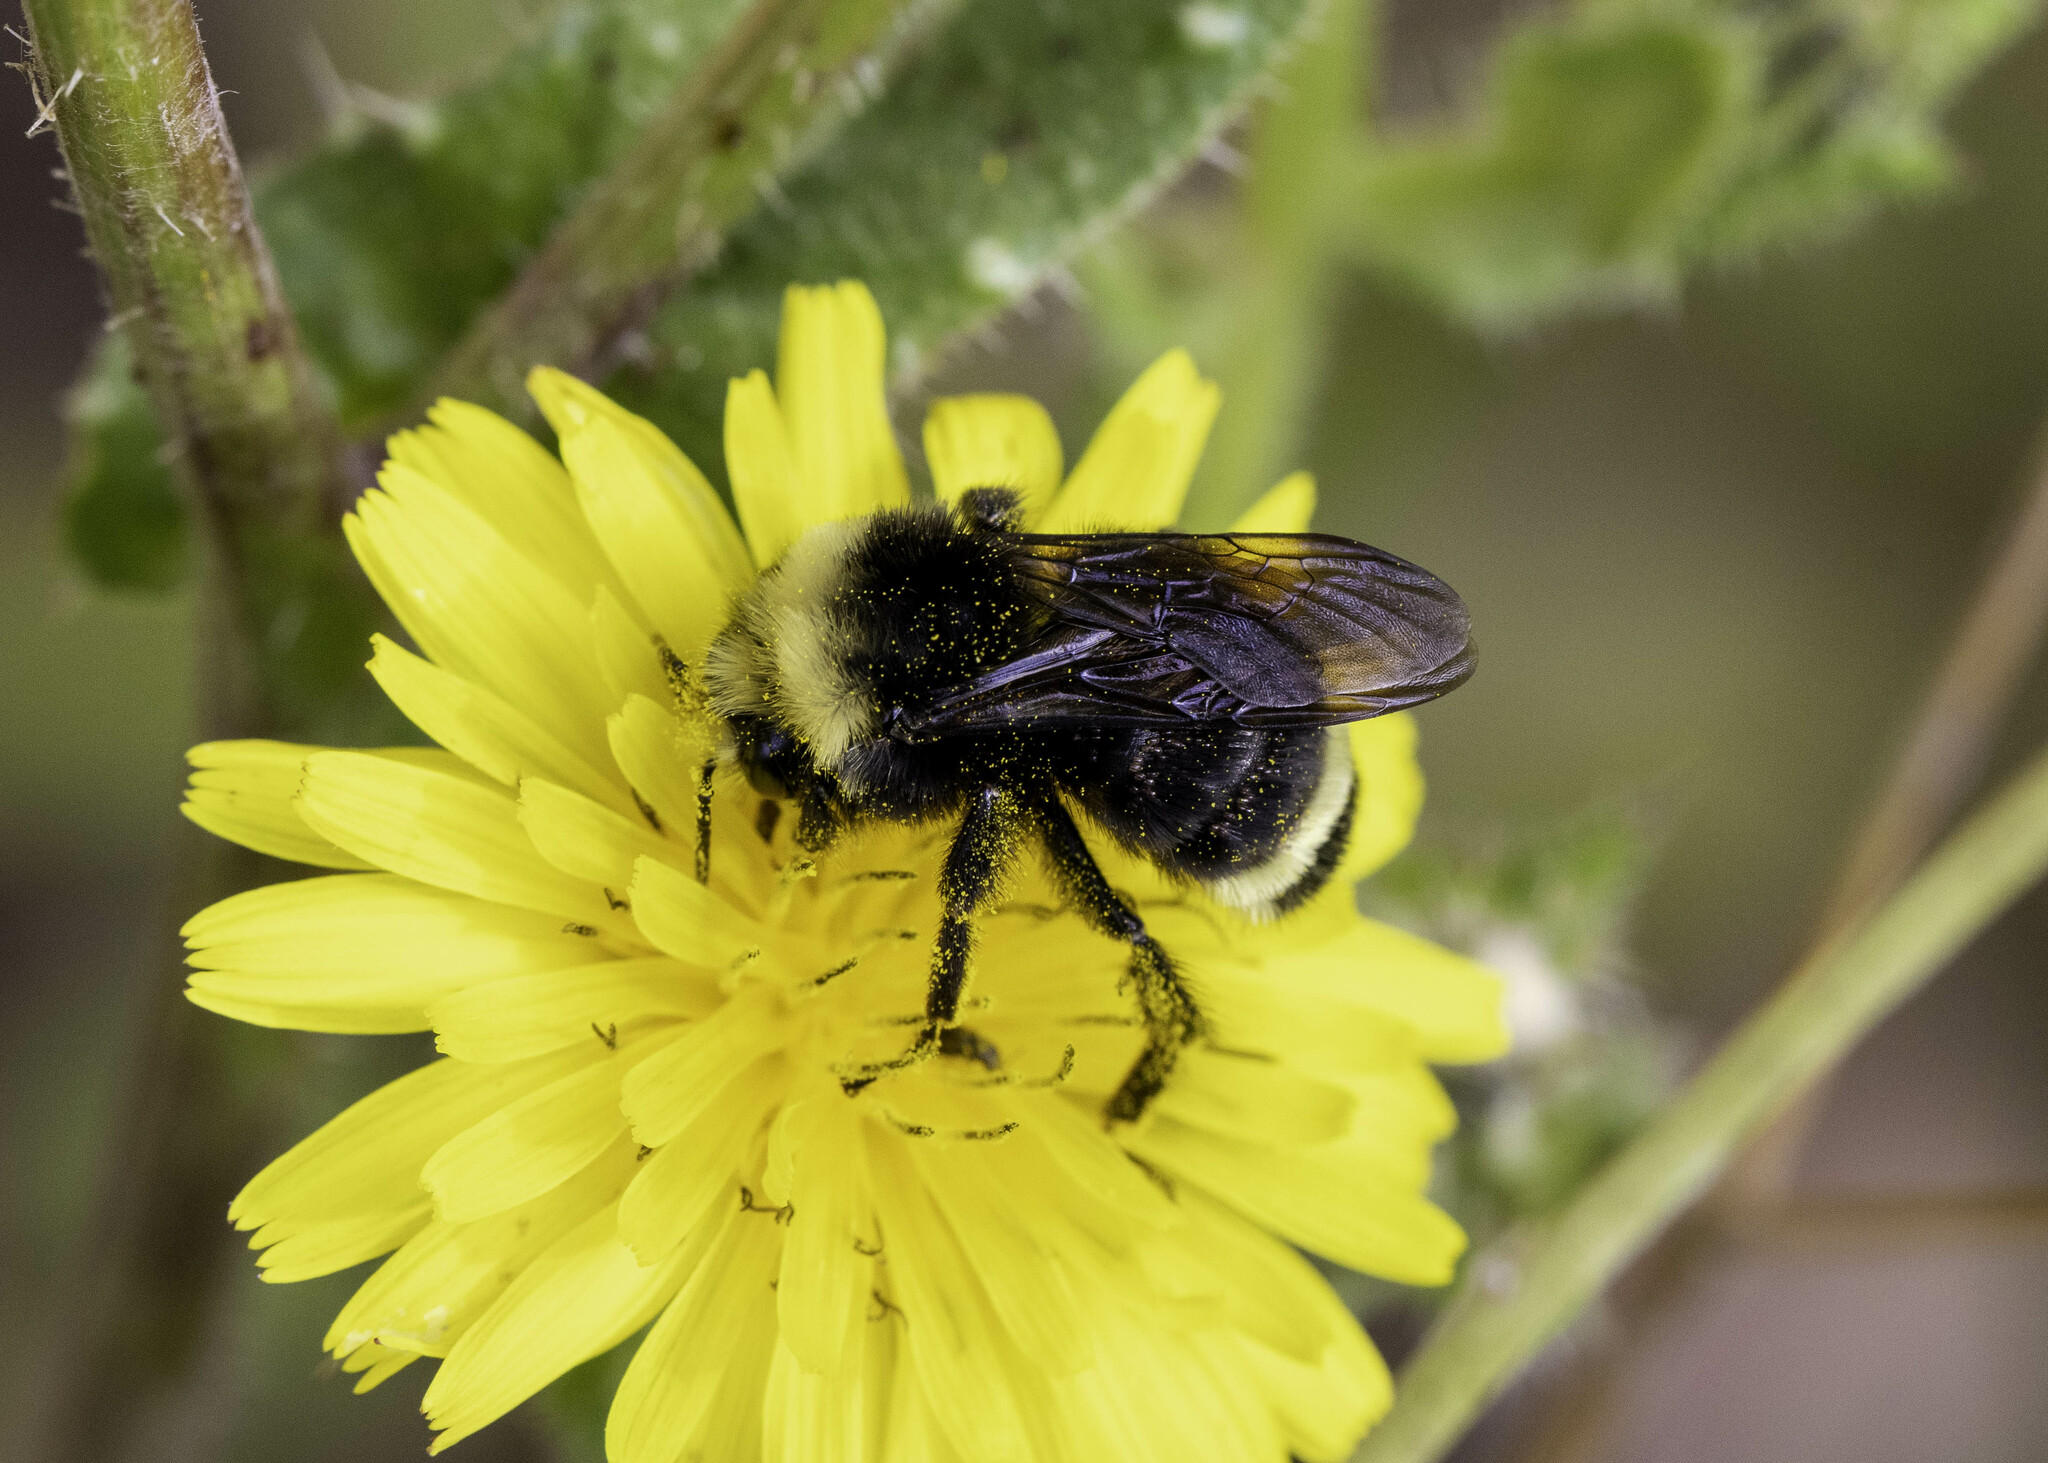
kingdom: Animalia
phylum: Arthropoda
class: Insecta
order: Hymenoptera
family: Apidae
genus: Bombus
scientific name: Bombus vosnesenskii
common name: Vosnesensky bumble bee
